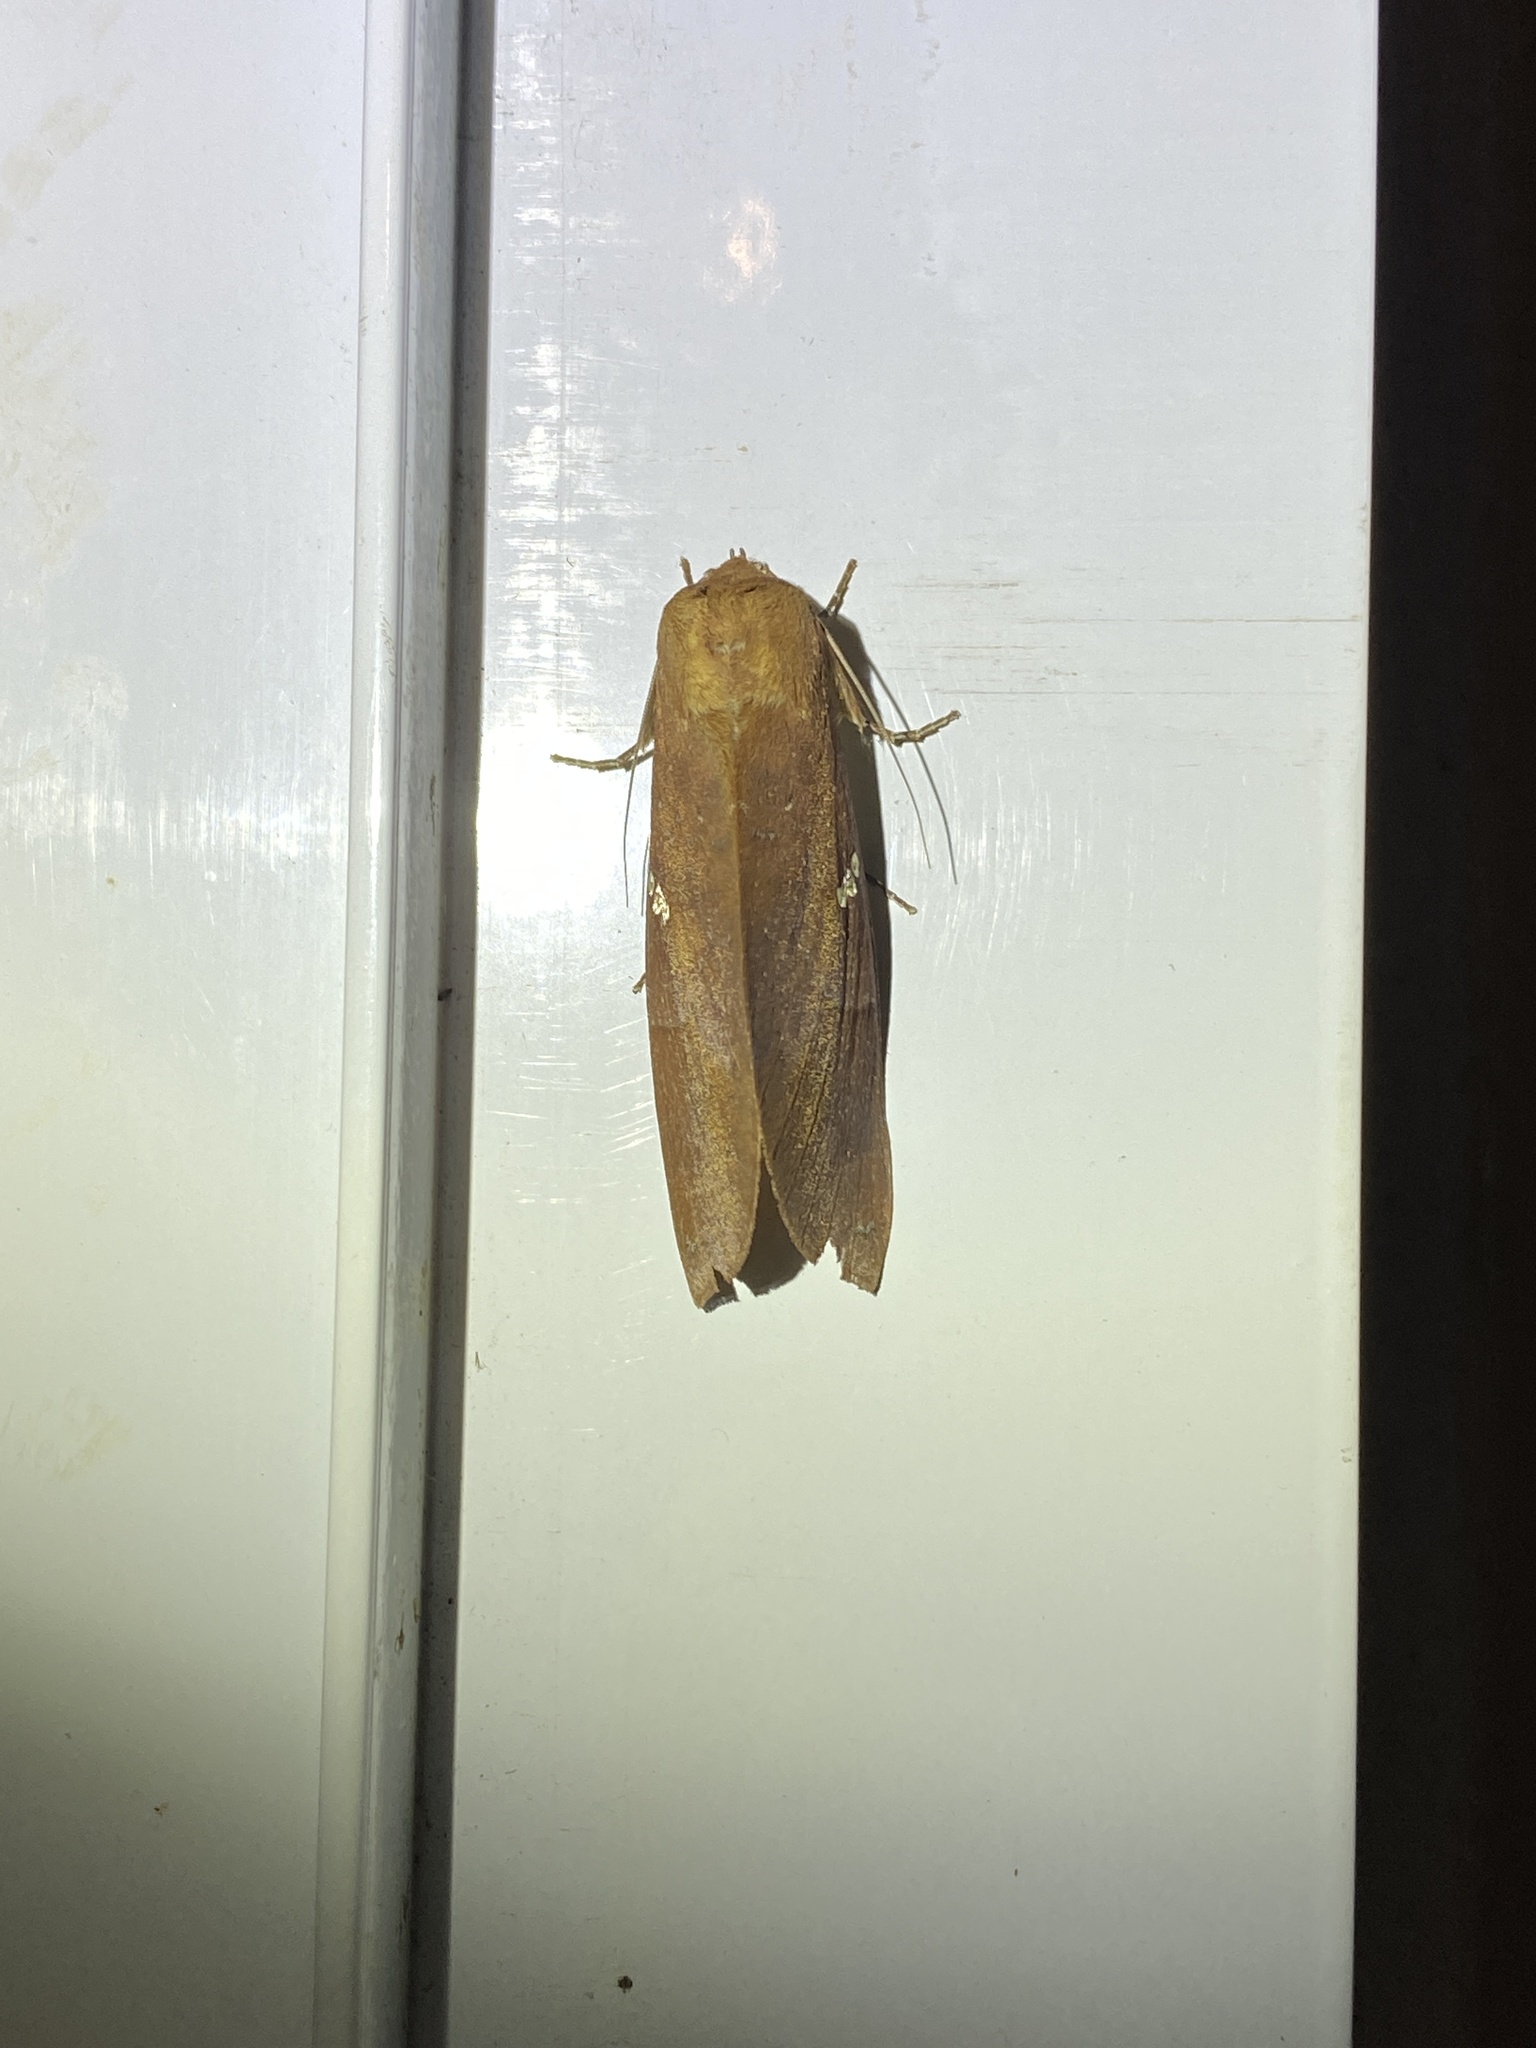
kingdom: Animalia
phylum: Arthropoda
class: Insecta
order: Lepidoptera
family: Notodontidae
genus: Hapigia
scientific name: Hapigia raatzi
